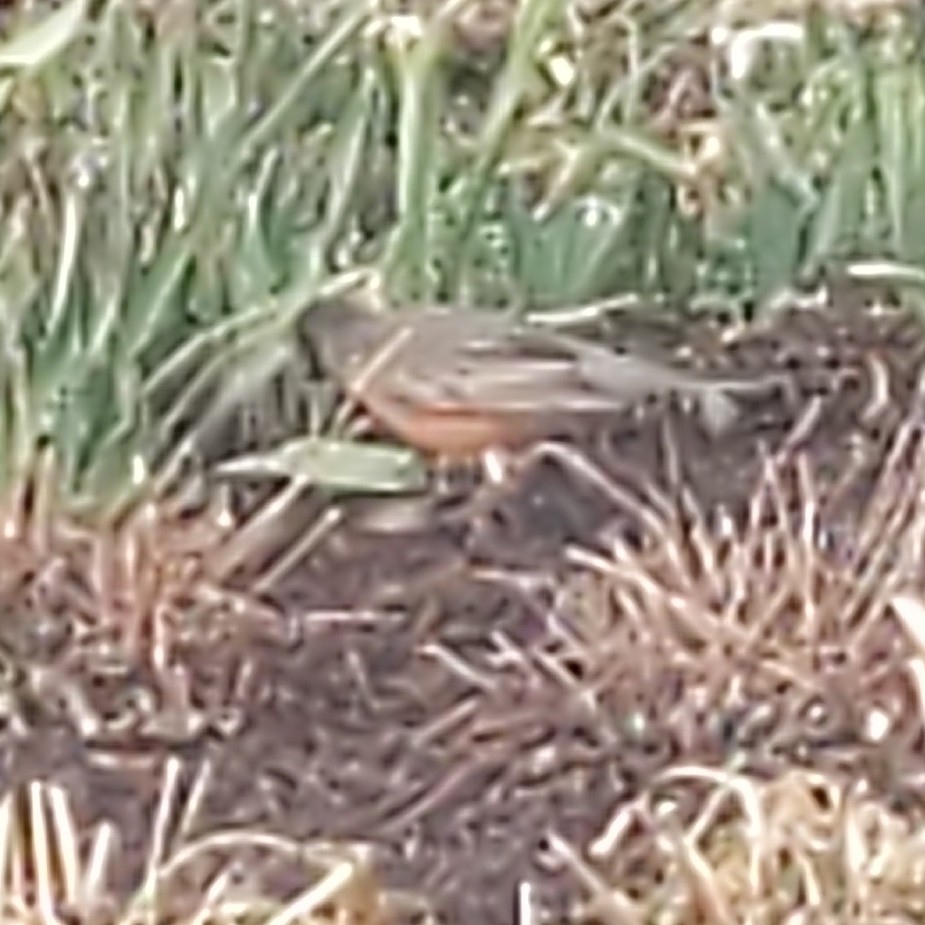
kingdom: Animalia
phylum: Chordata
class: Aves
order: Passeriformes
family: Turdidae
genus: Turdus
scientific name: Turdus migratorius
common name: American robin
